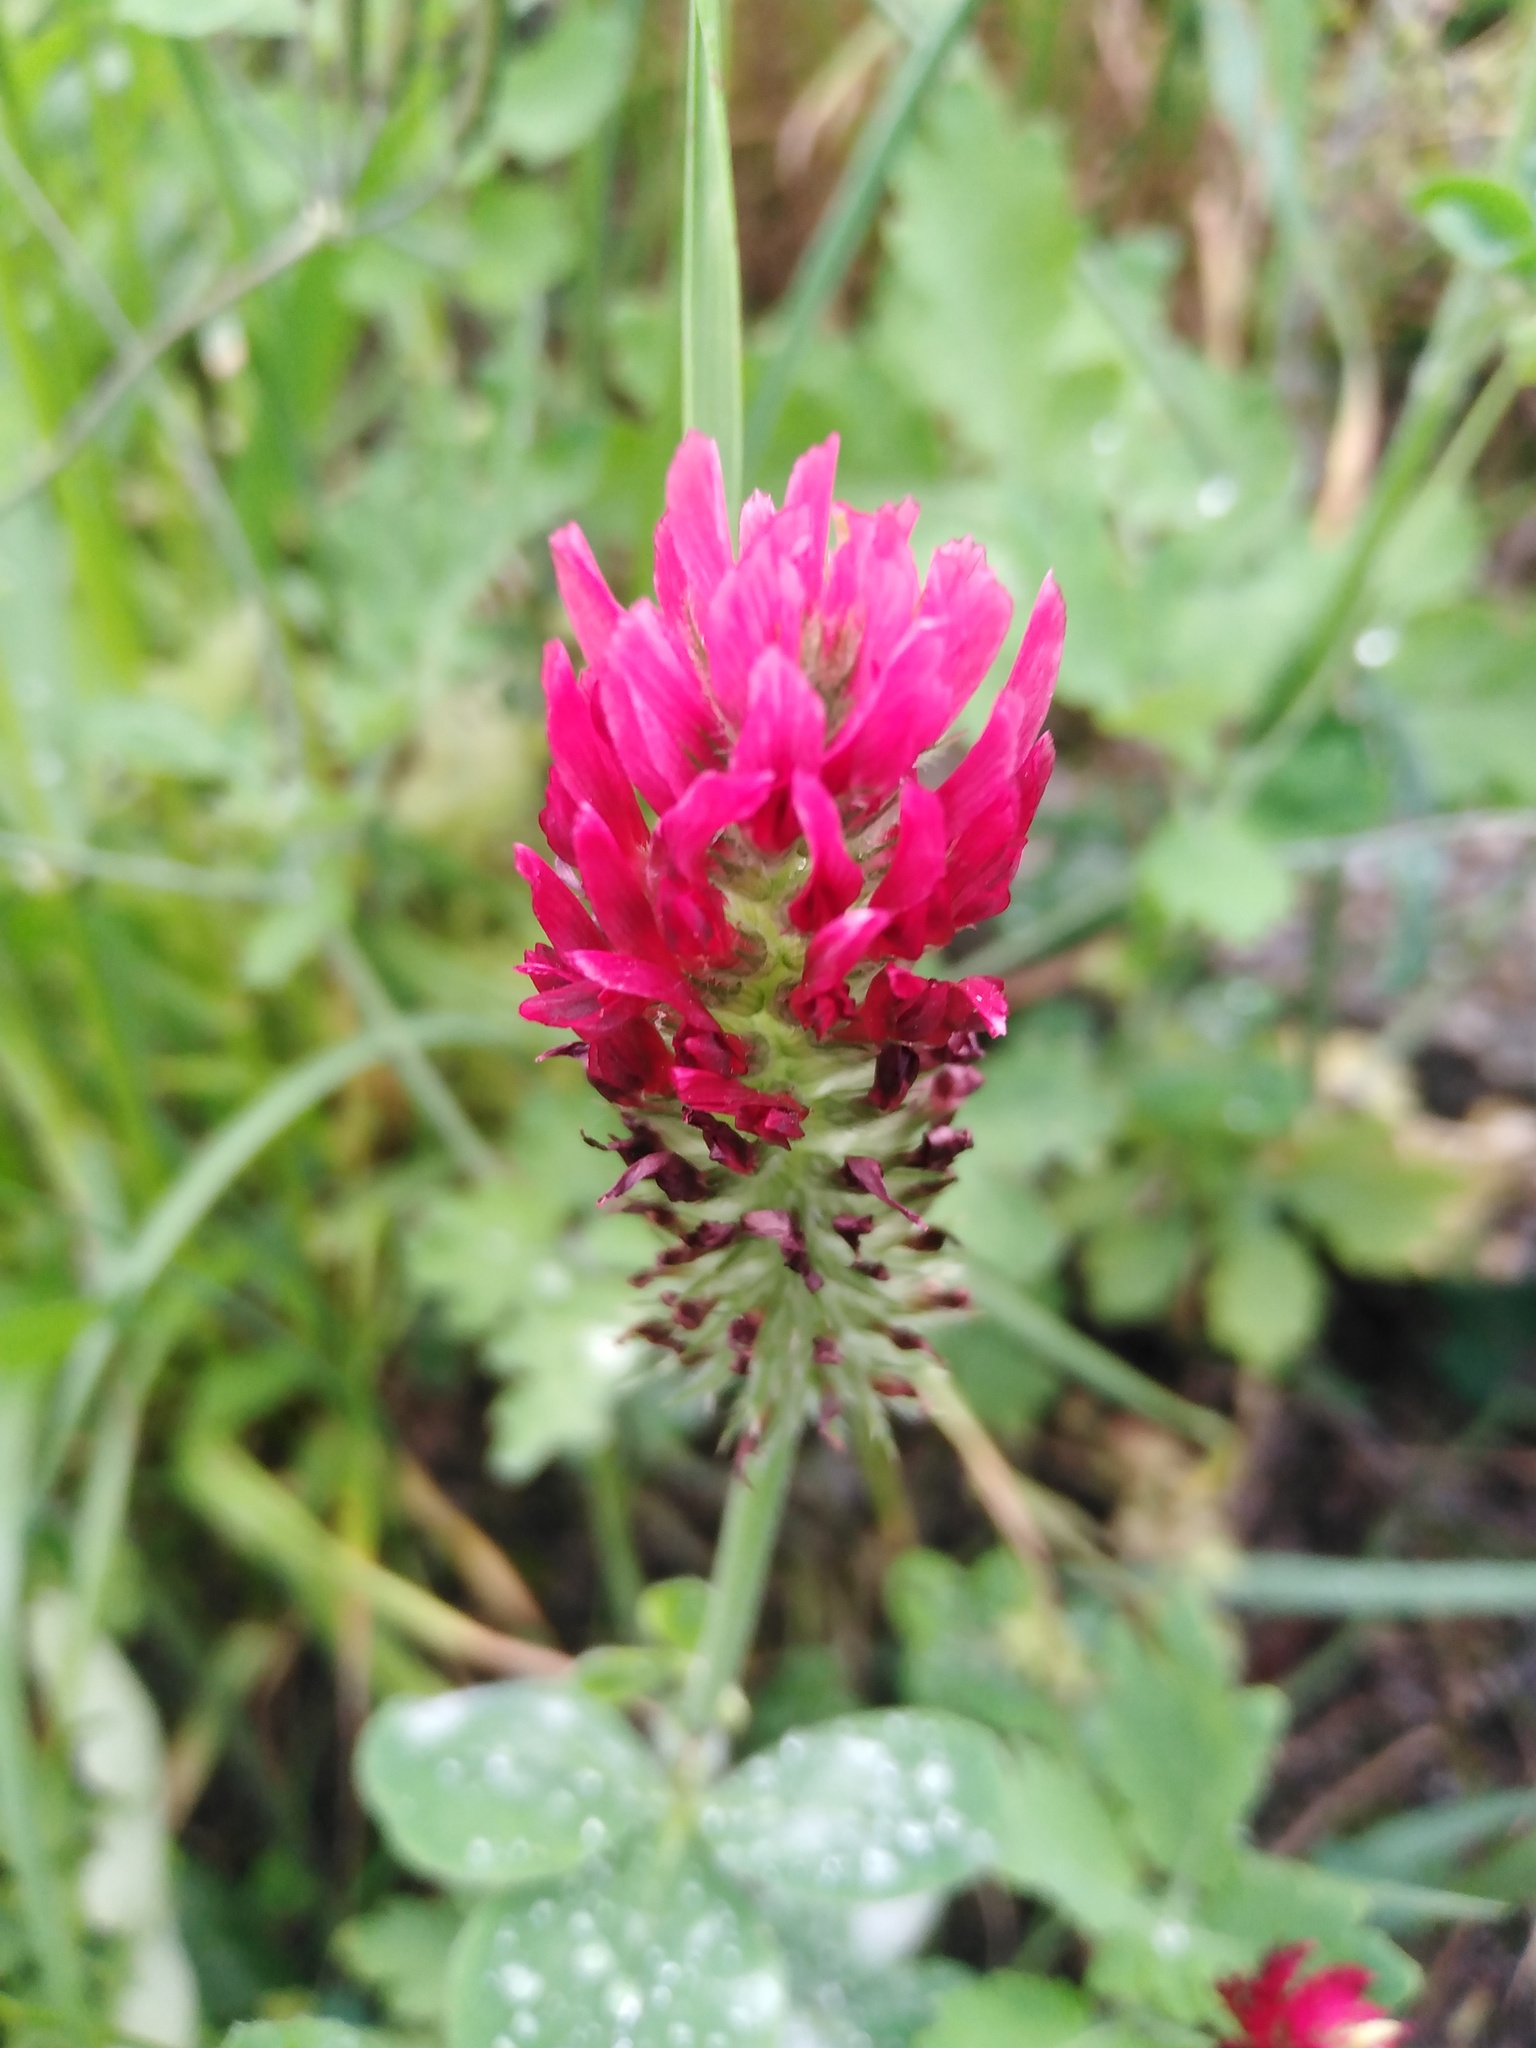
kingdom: Plantae
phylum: Tracheophyta
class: Magnoliopsida
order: Fabales
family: Fabaceae
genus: Trifolium
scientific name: Trifolium incarnatum
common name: Crimson clover
